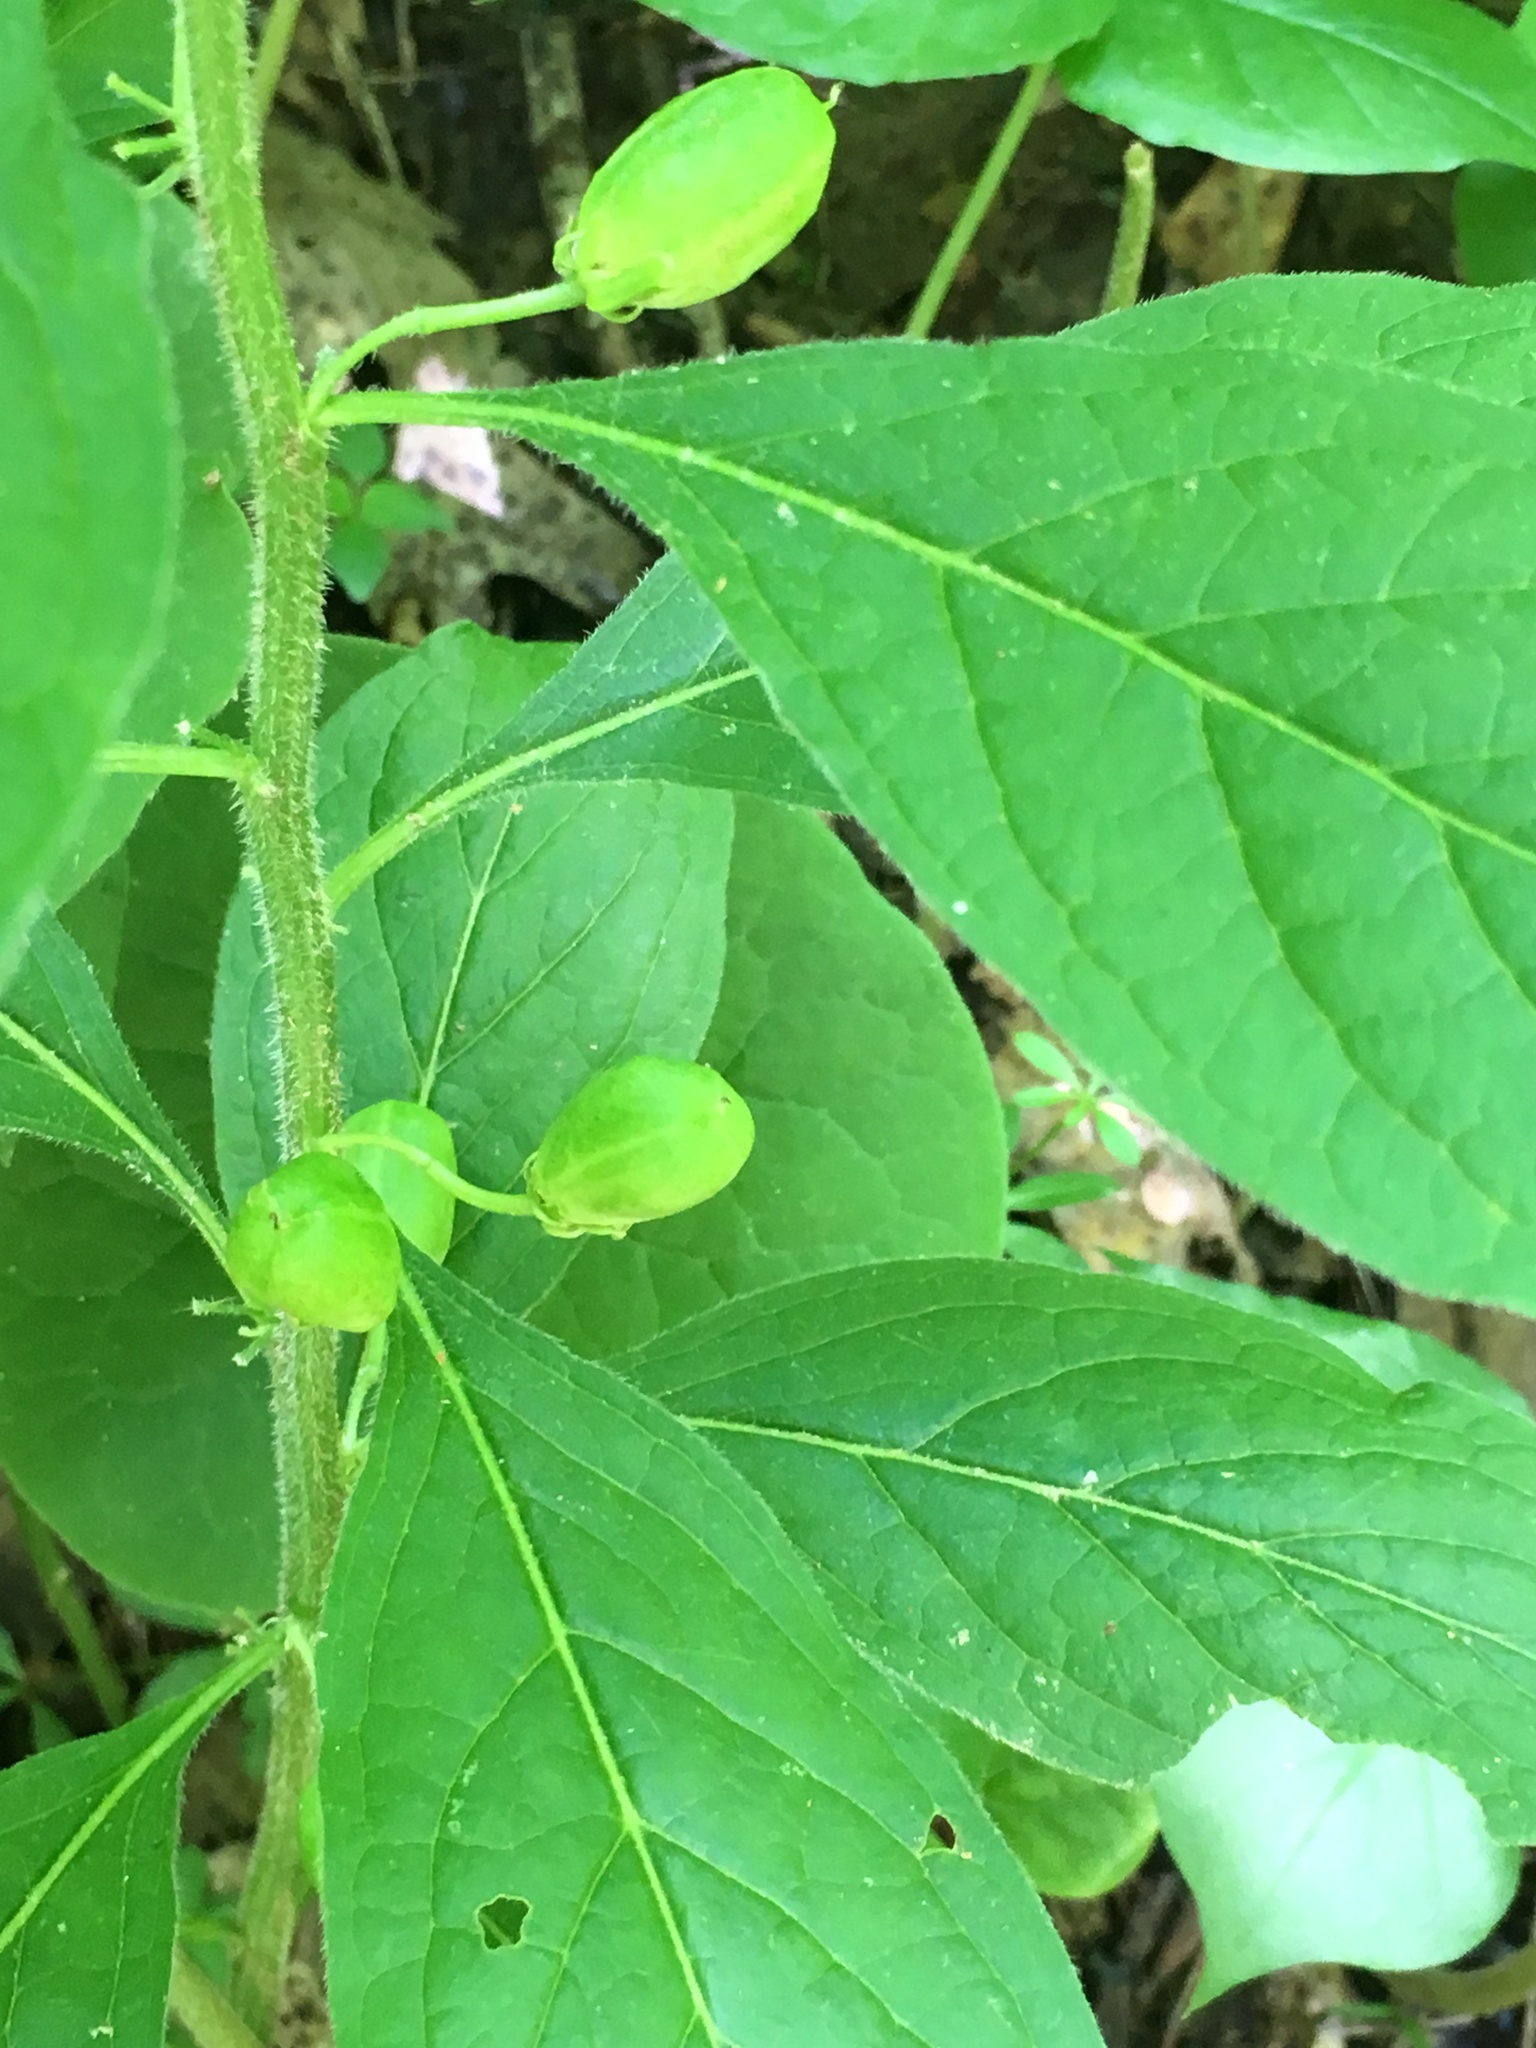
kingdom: Plantae
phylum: Tracheophyta
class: Magnoliopsida
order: Malpighiales
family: Violaceae
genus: Cubelium
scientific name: Cubelium concolor
